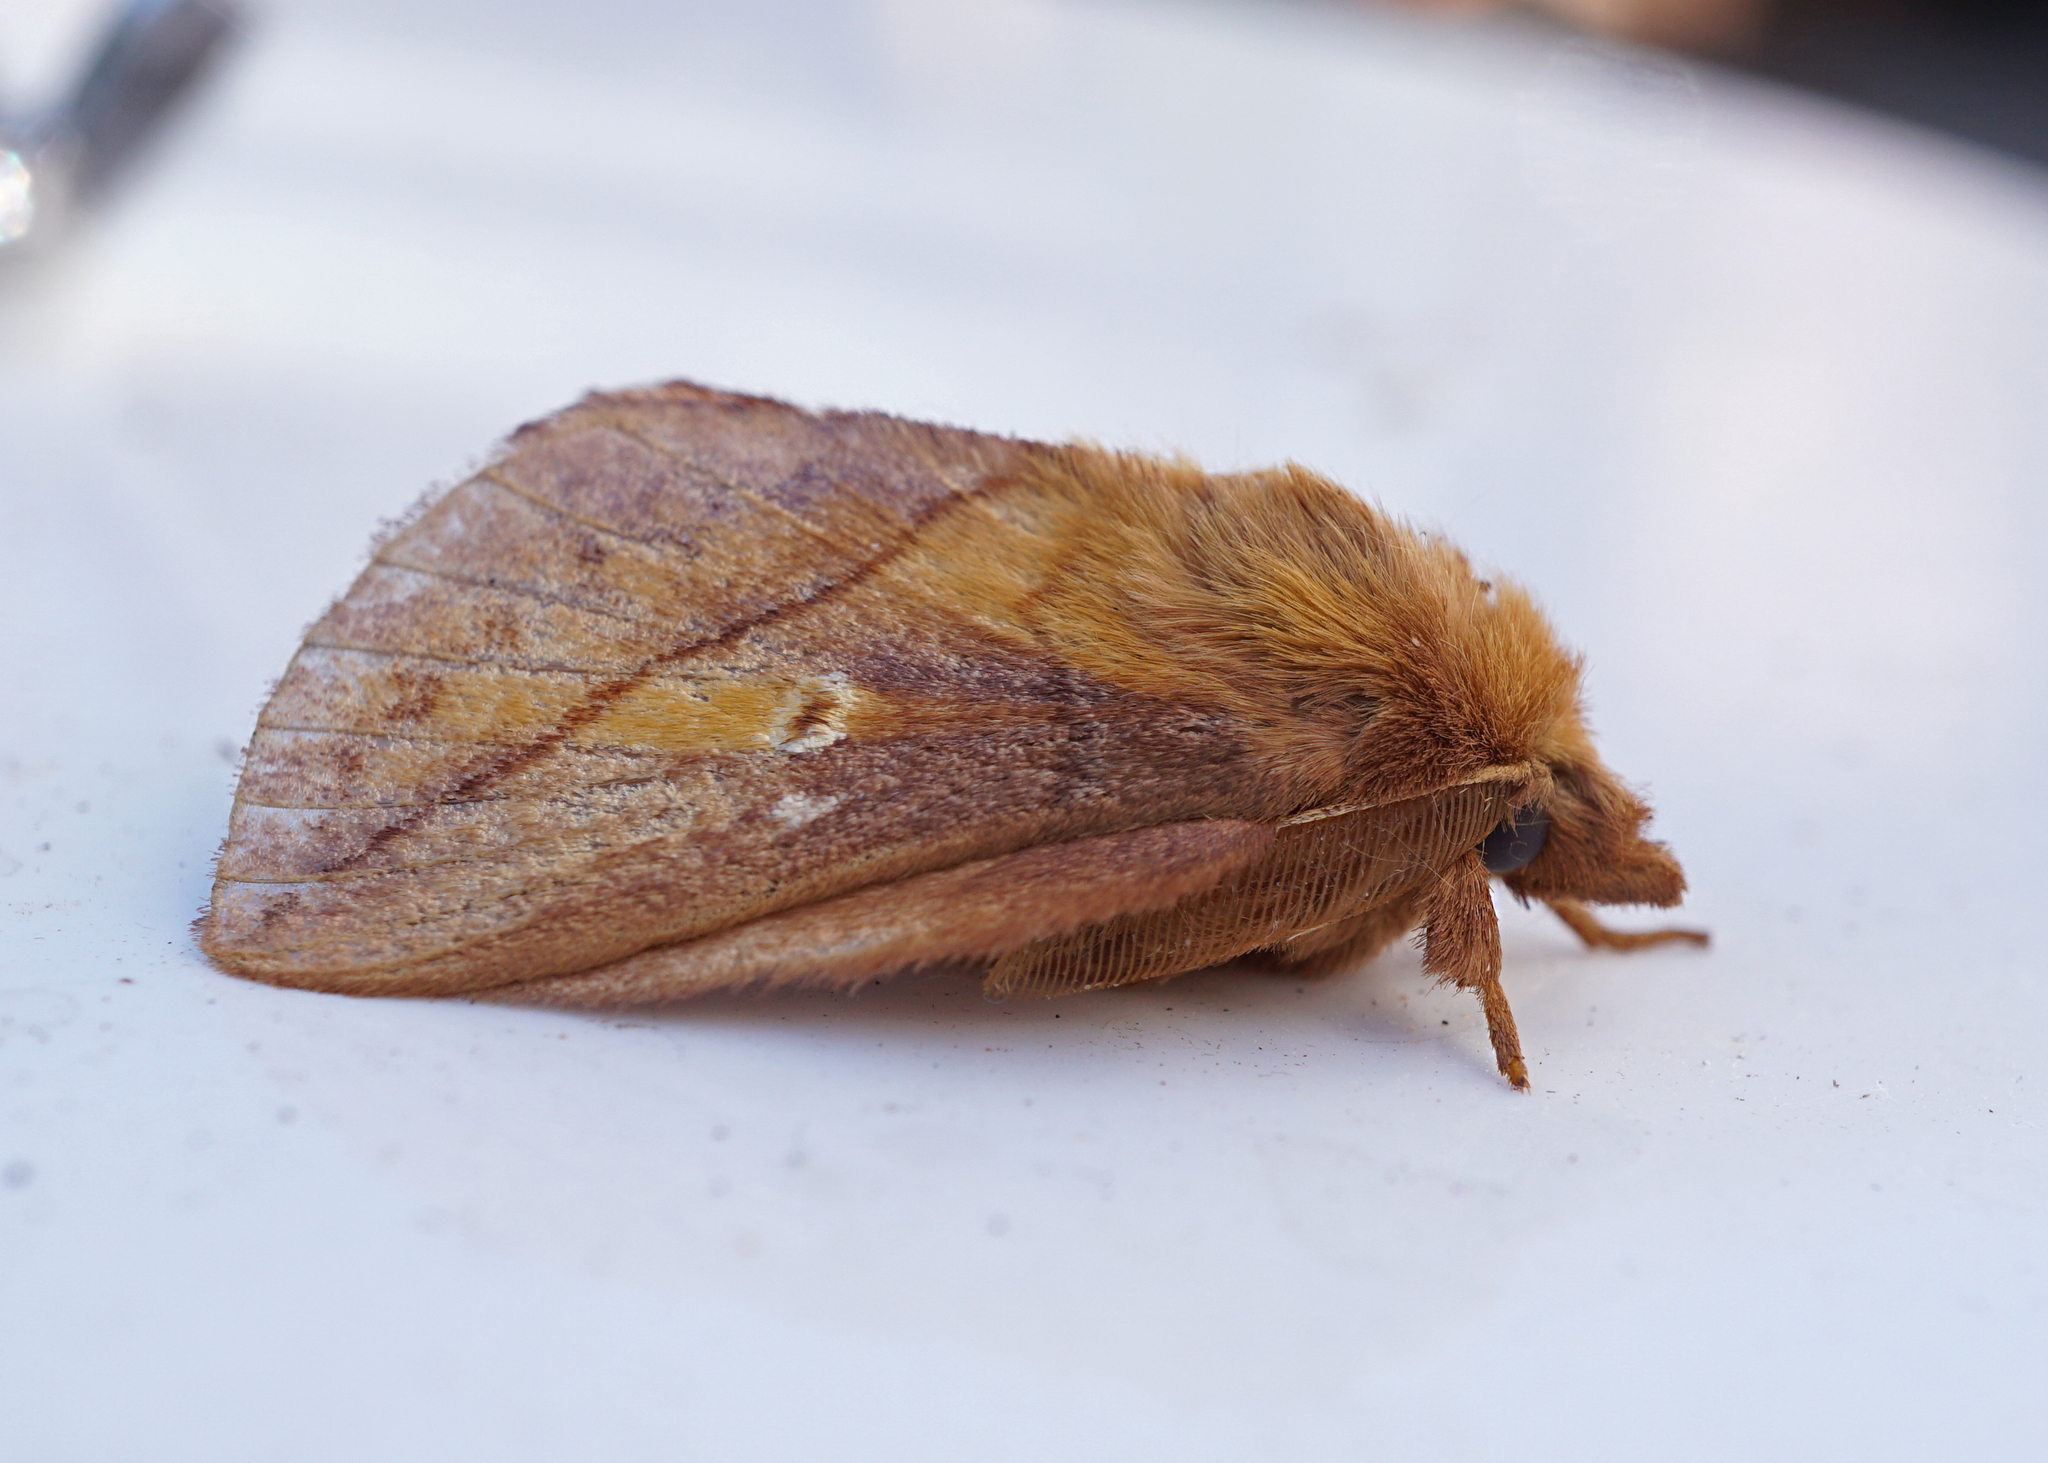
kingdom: Animalia
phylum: Arthropoda
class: Insecta
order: Lepidoptera
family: Lasiocampidae
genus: Euthrix
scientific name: Euthrix potatoria
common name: Drinker
